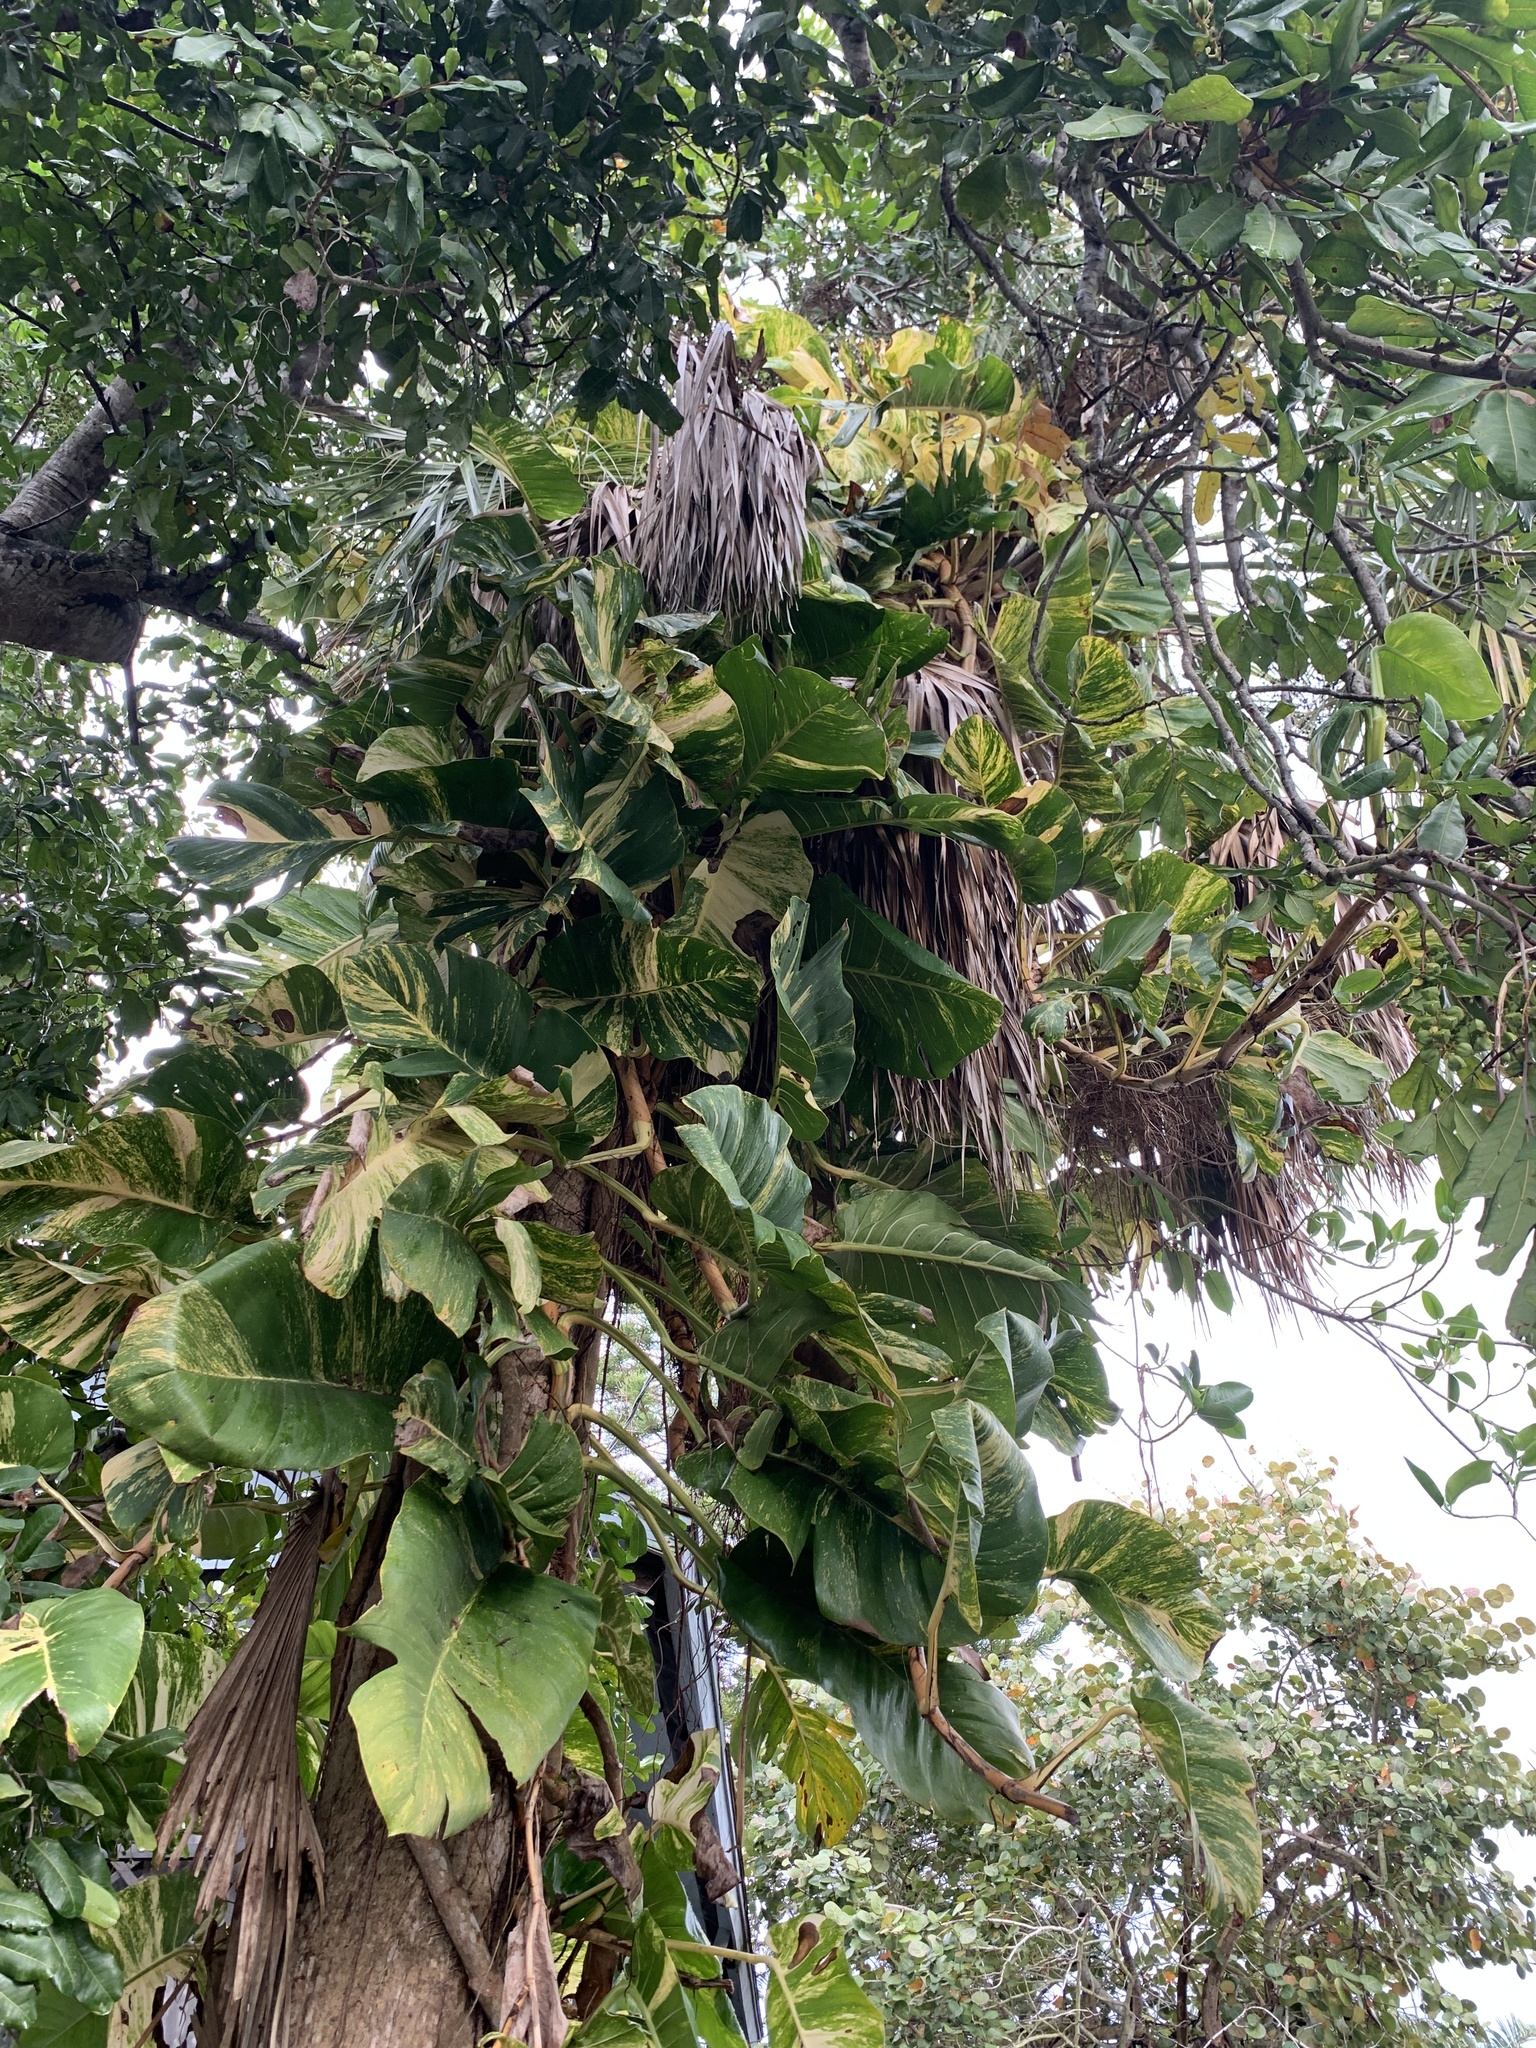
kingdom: Plantae
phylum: Tracheophyta
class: Liliopsida
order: Alismatales
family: Araceae
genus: Epipremnum
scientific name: Epipremnum aureum
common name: Golden hunter's-robe
